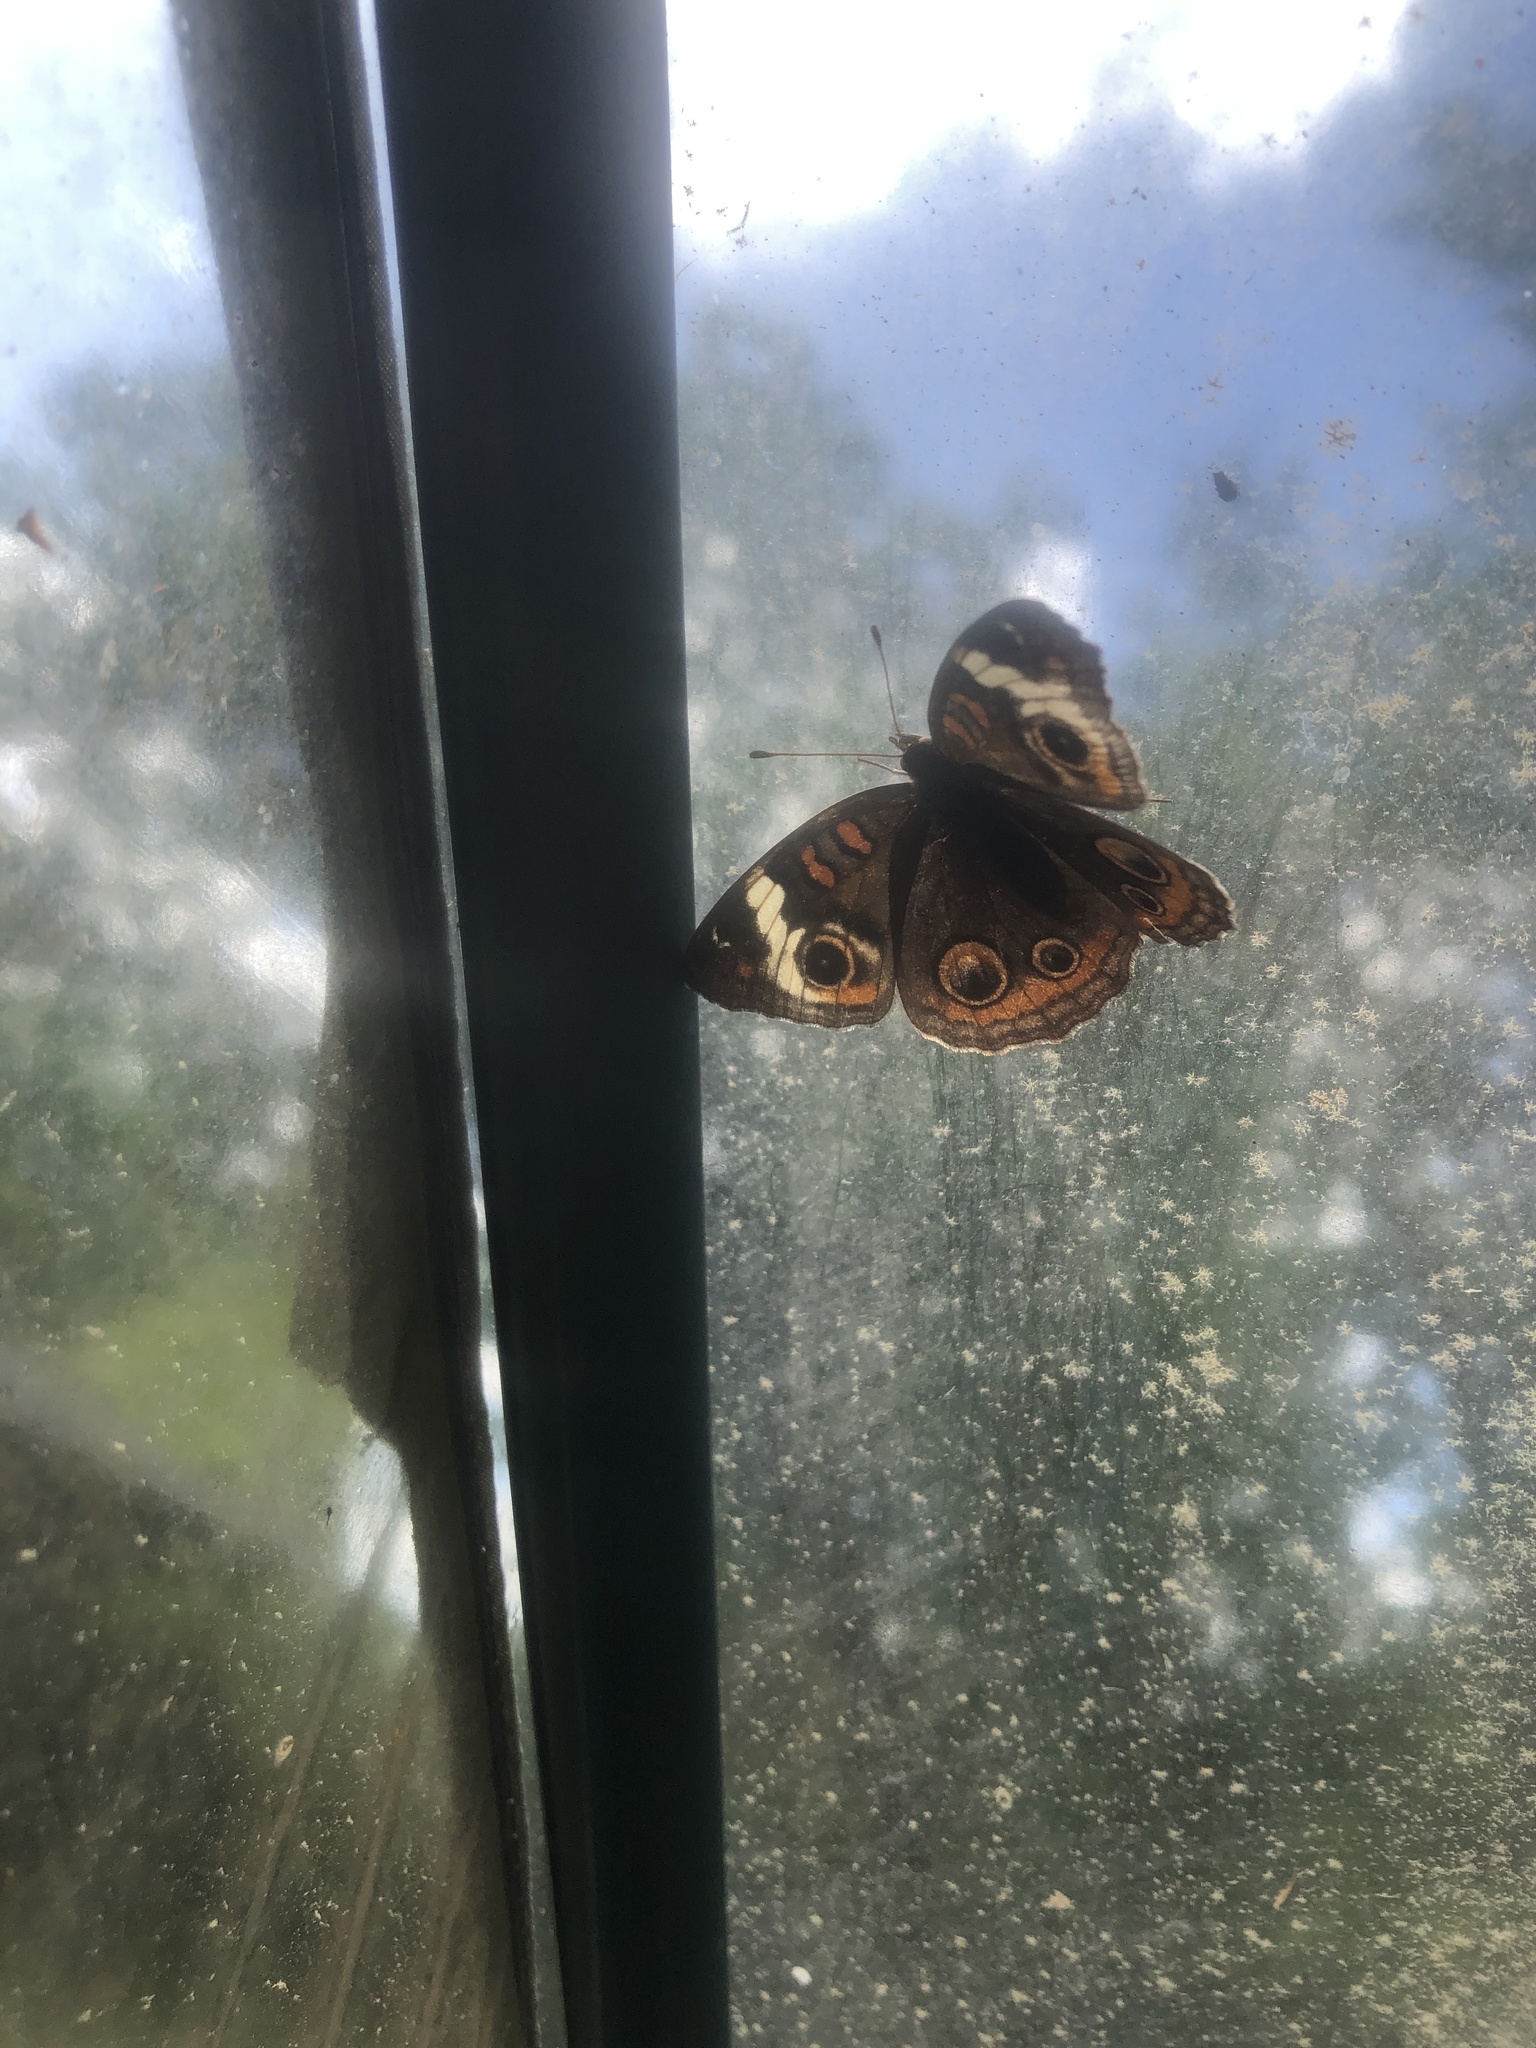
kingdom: Animalia
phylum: Arthropoda
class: Insecta
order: Lepidoptera
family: Nymphalidae
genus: Junonia
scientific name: Junonia coenia
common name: Common buckeye
